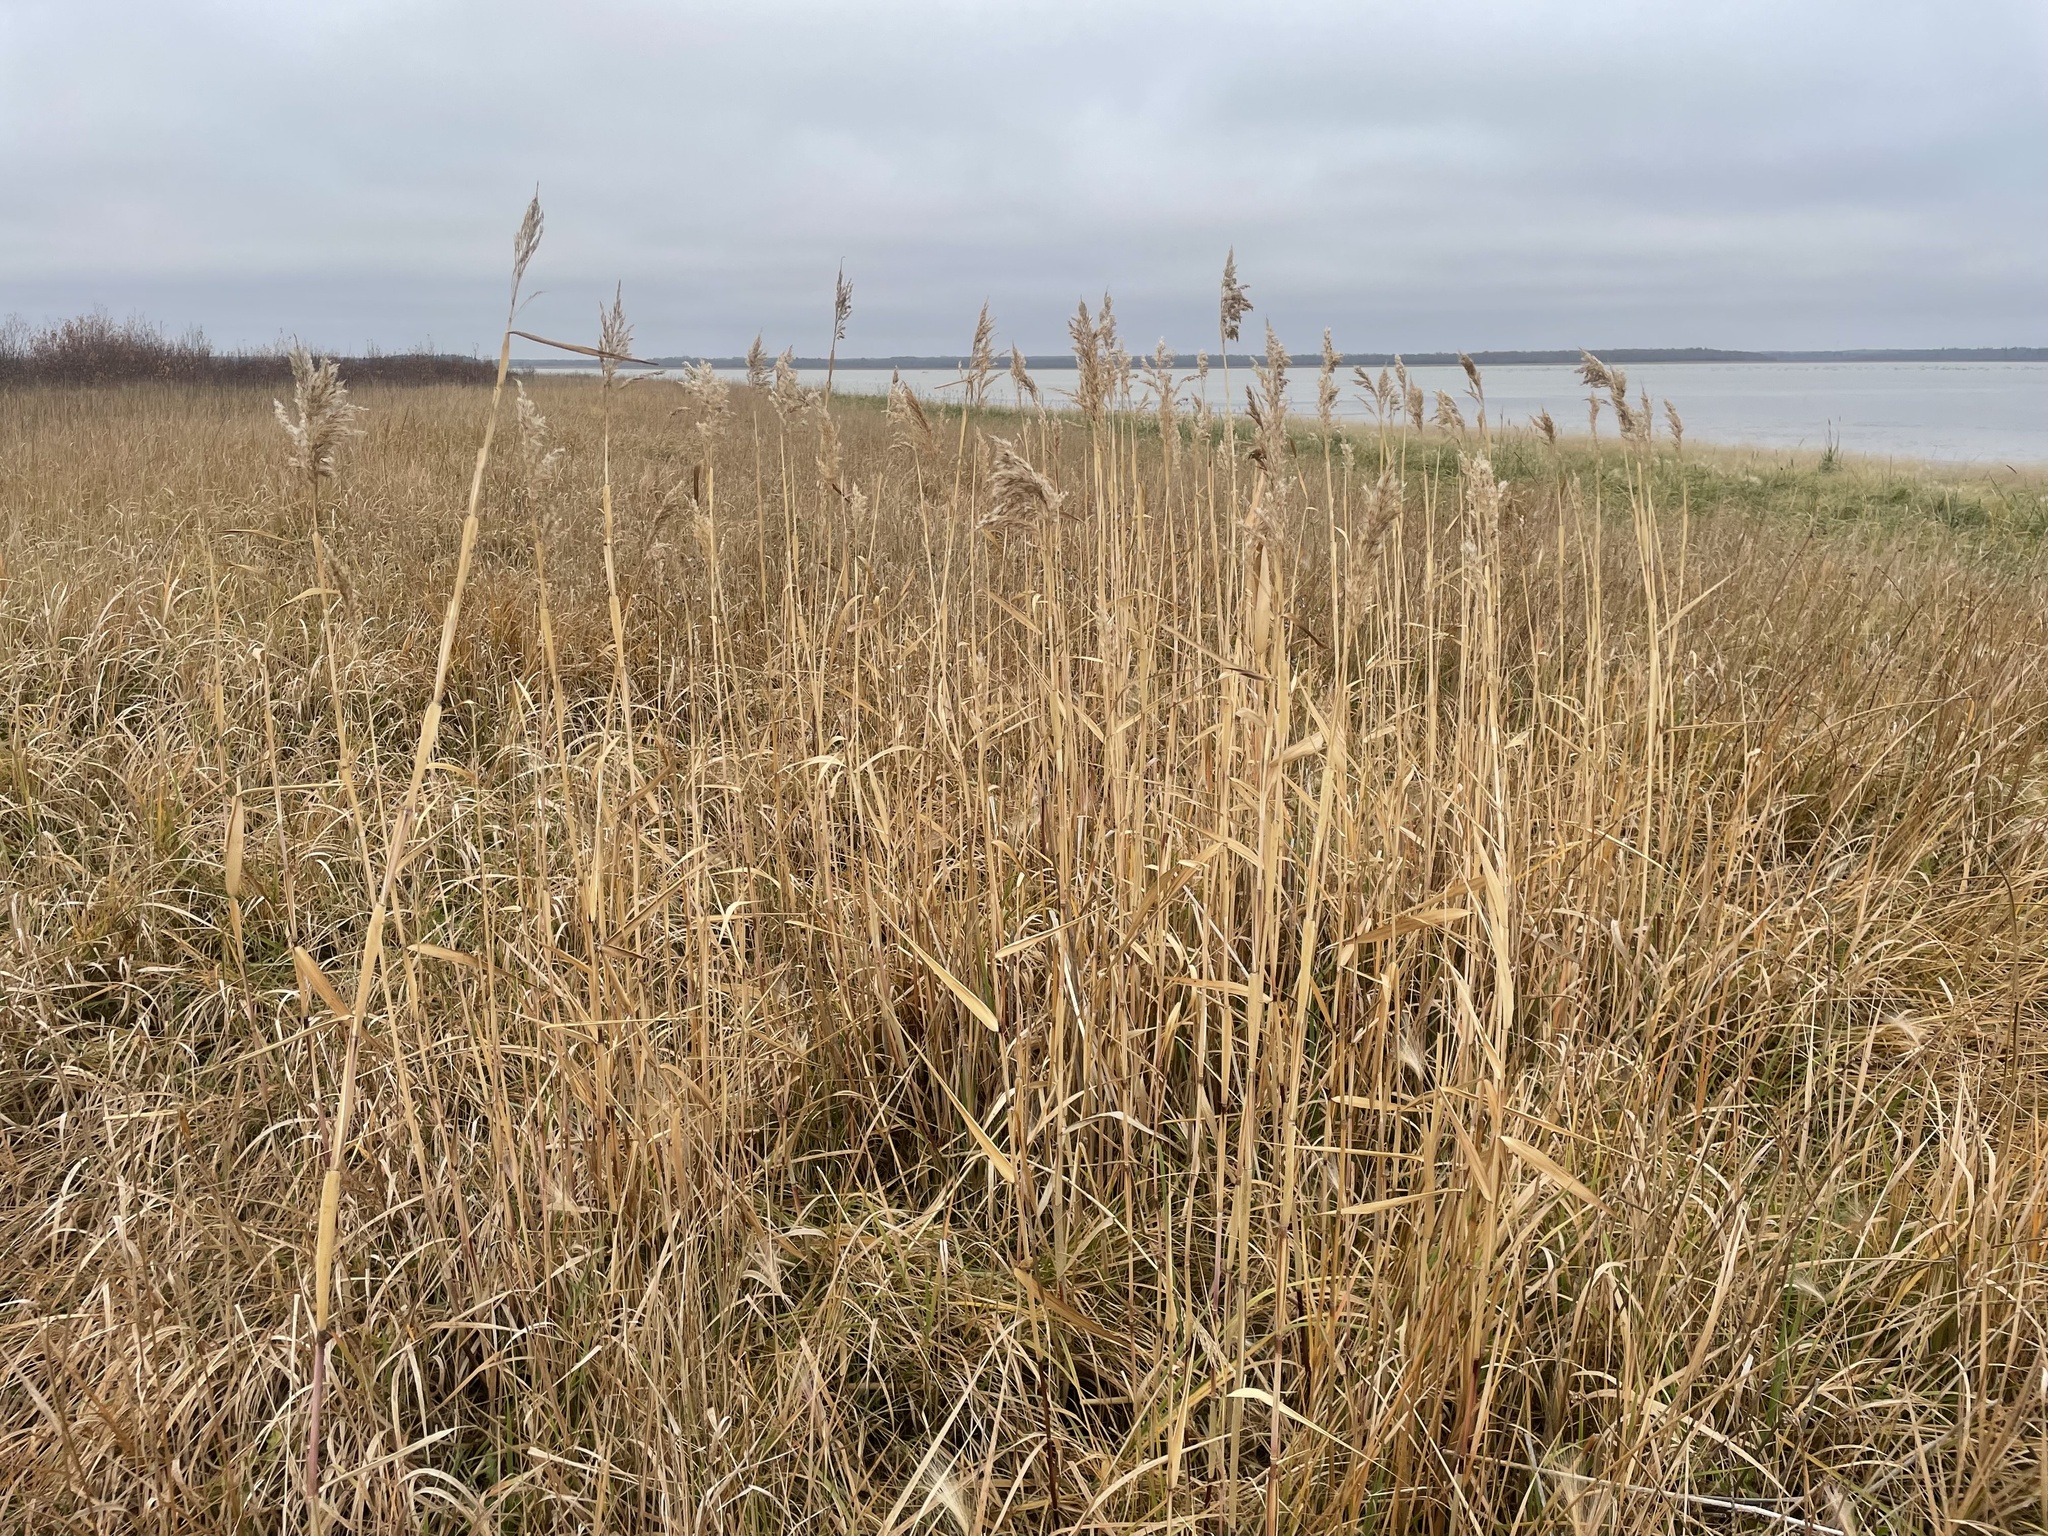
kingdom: Plantae
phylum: Tracheophyta
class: Liliopsida
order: Poales
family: Poaceae
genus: Phragmites
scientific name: Phragmites australis
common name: Common reed
